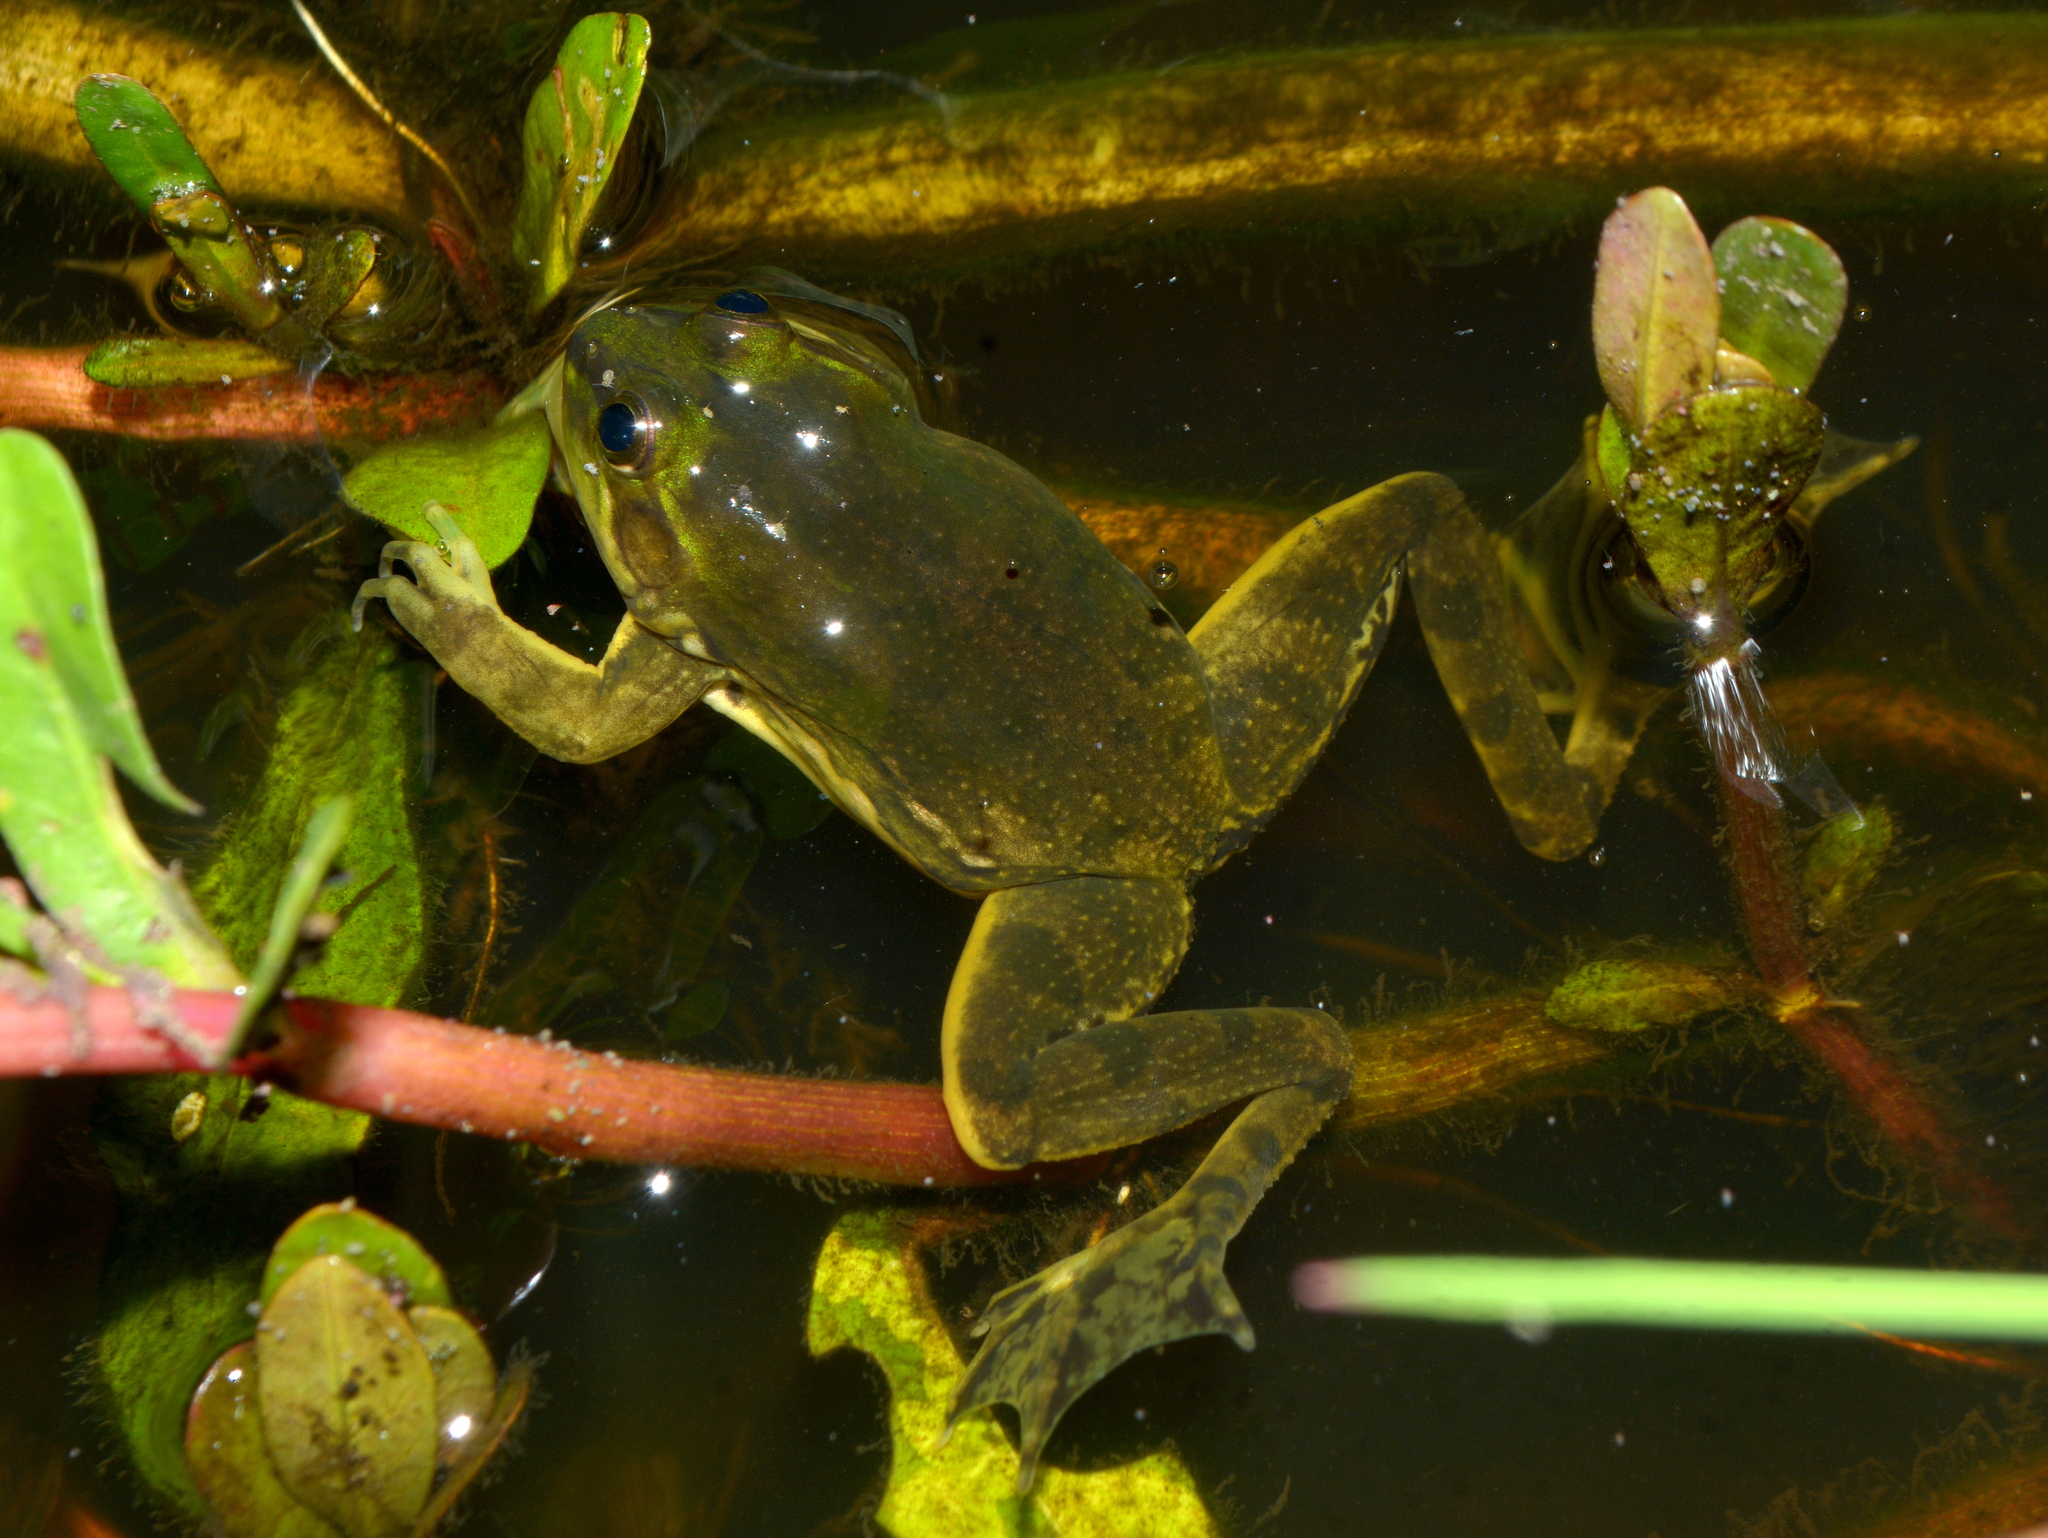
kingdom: Animalia
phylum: Chordata
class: Amphibia
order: Anura
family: Hylidae
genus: Pseudis
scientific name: Pseudis minuta
